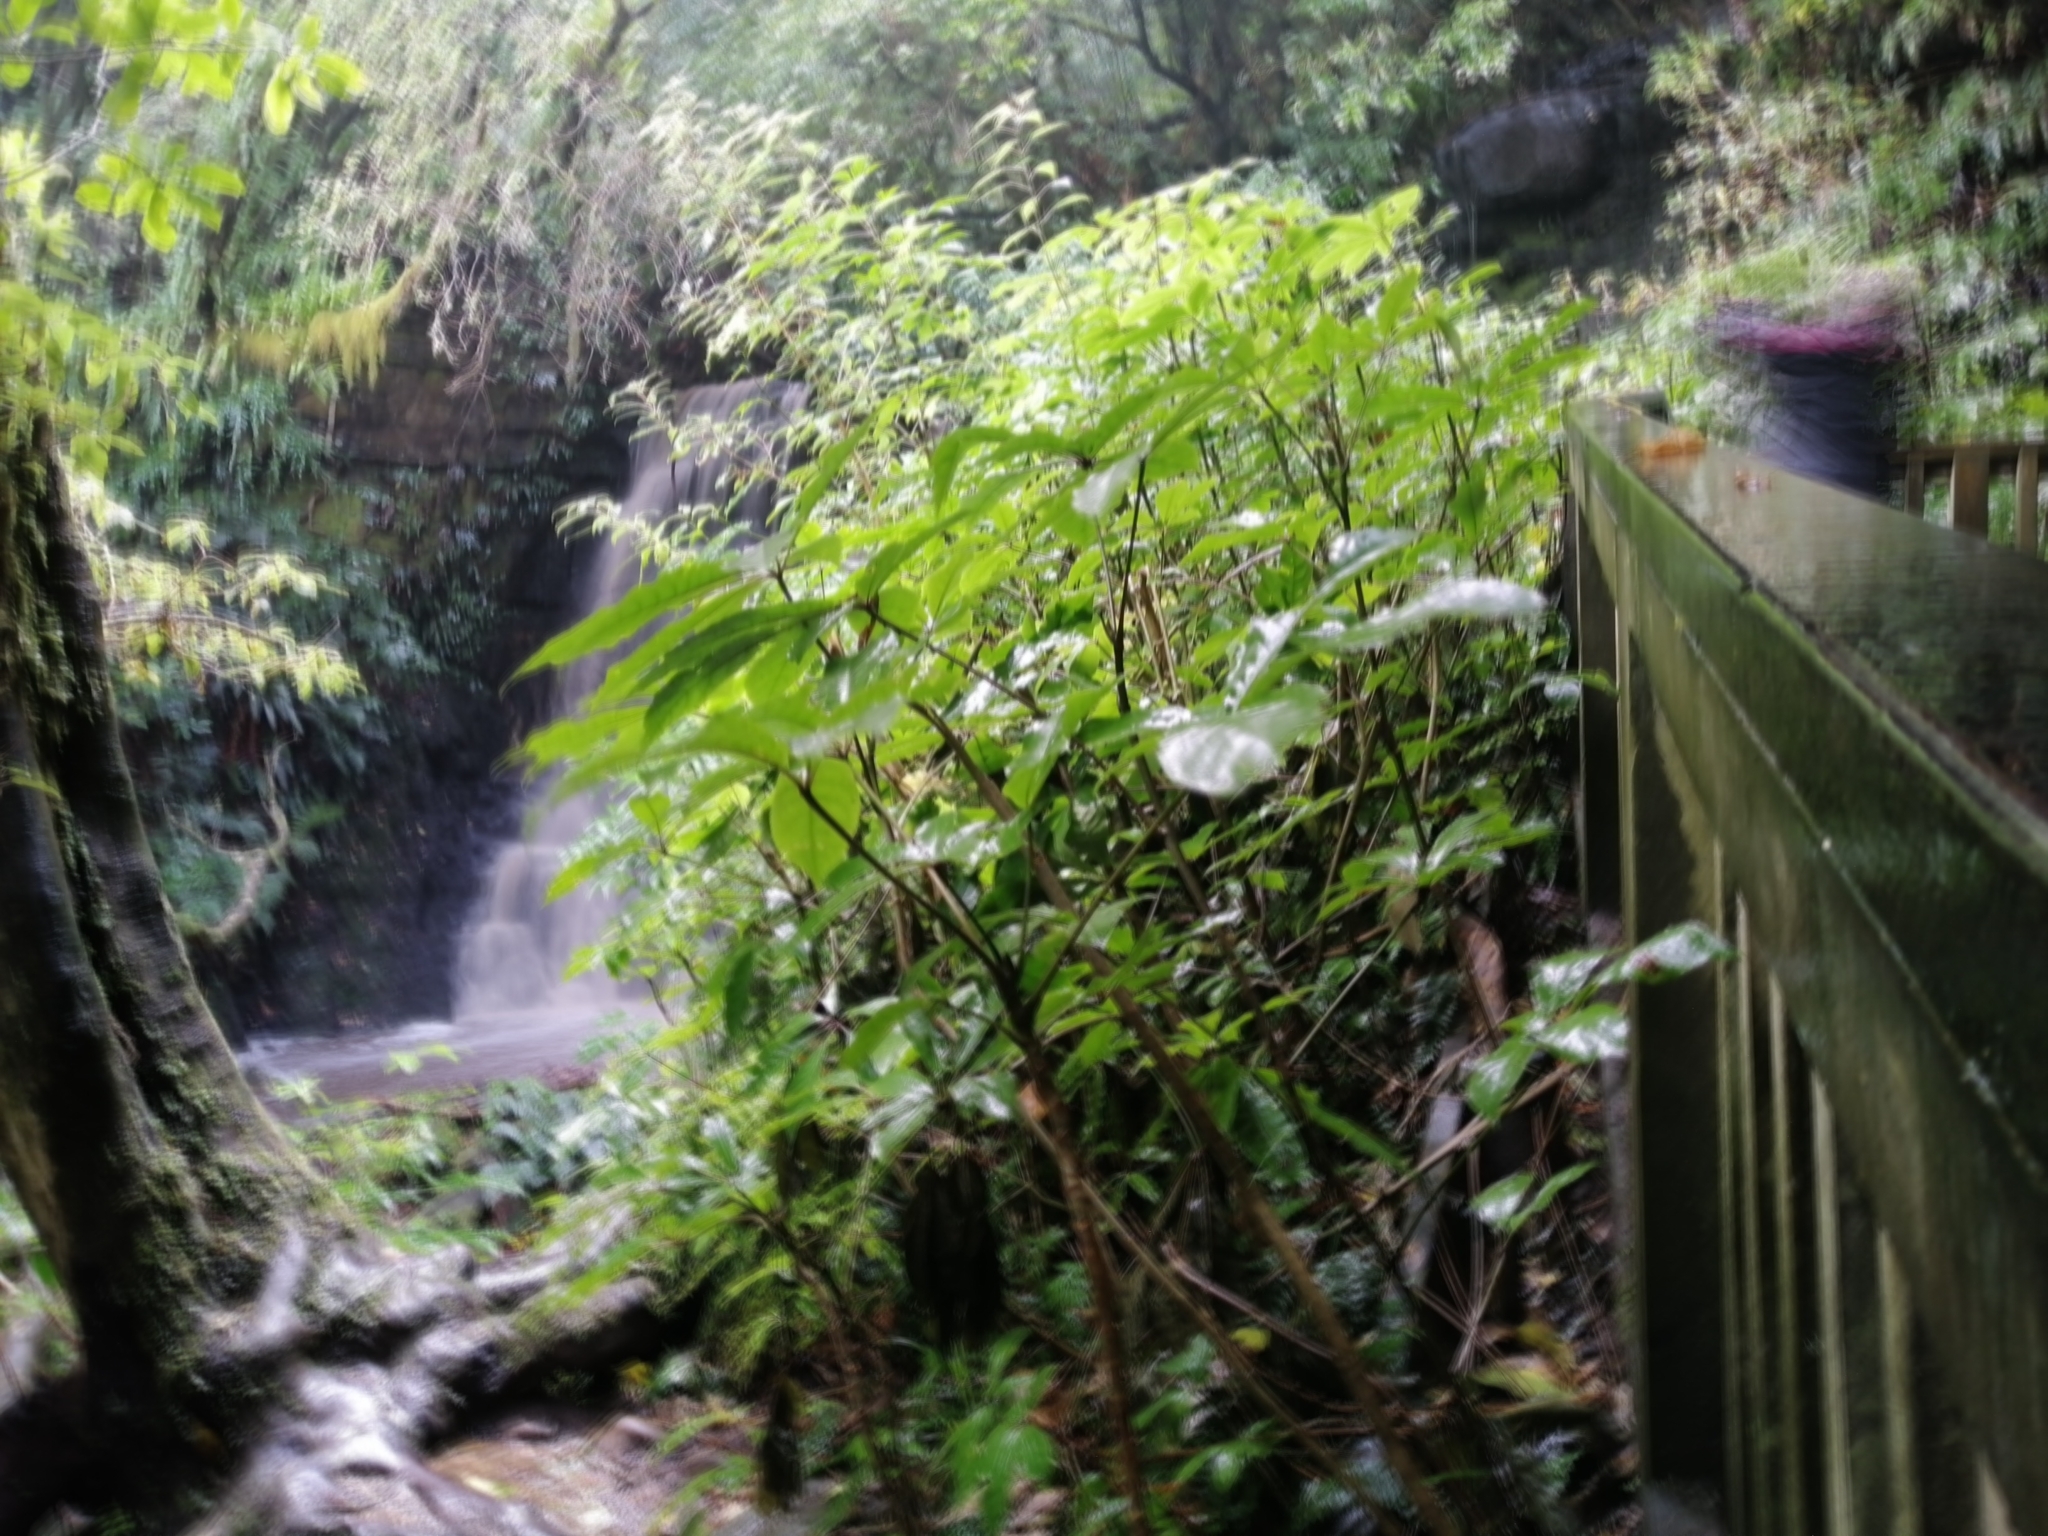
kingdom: Plantae
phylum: Tracheophyta
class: Magnoliopsida
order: Apiales
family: Araliaceae
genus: Schefflera
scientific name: Schefflera digitata
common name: Pate
